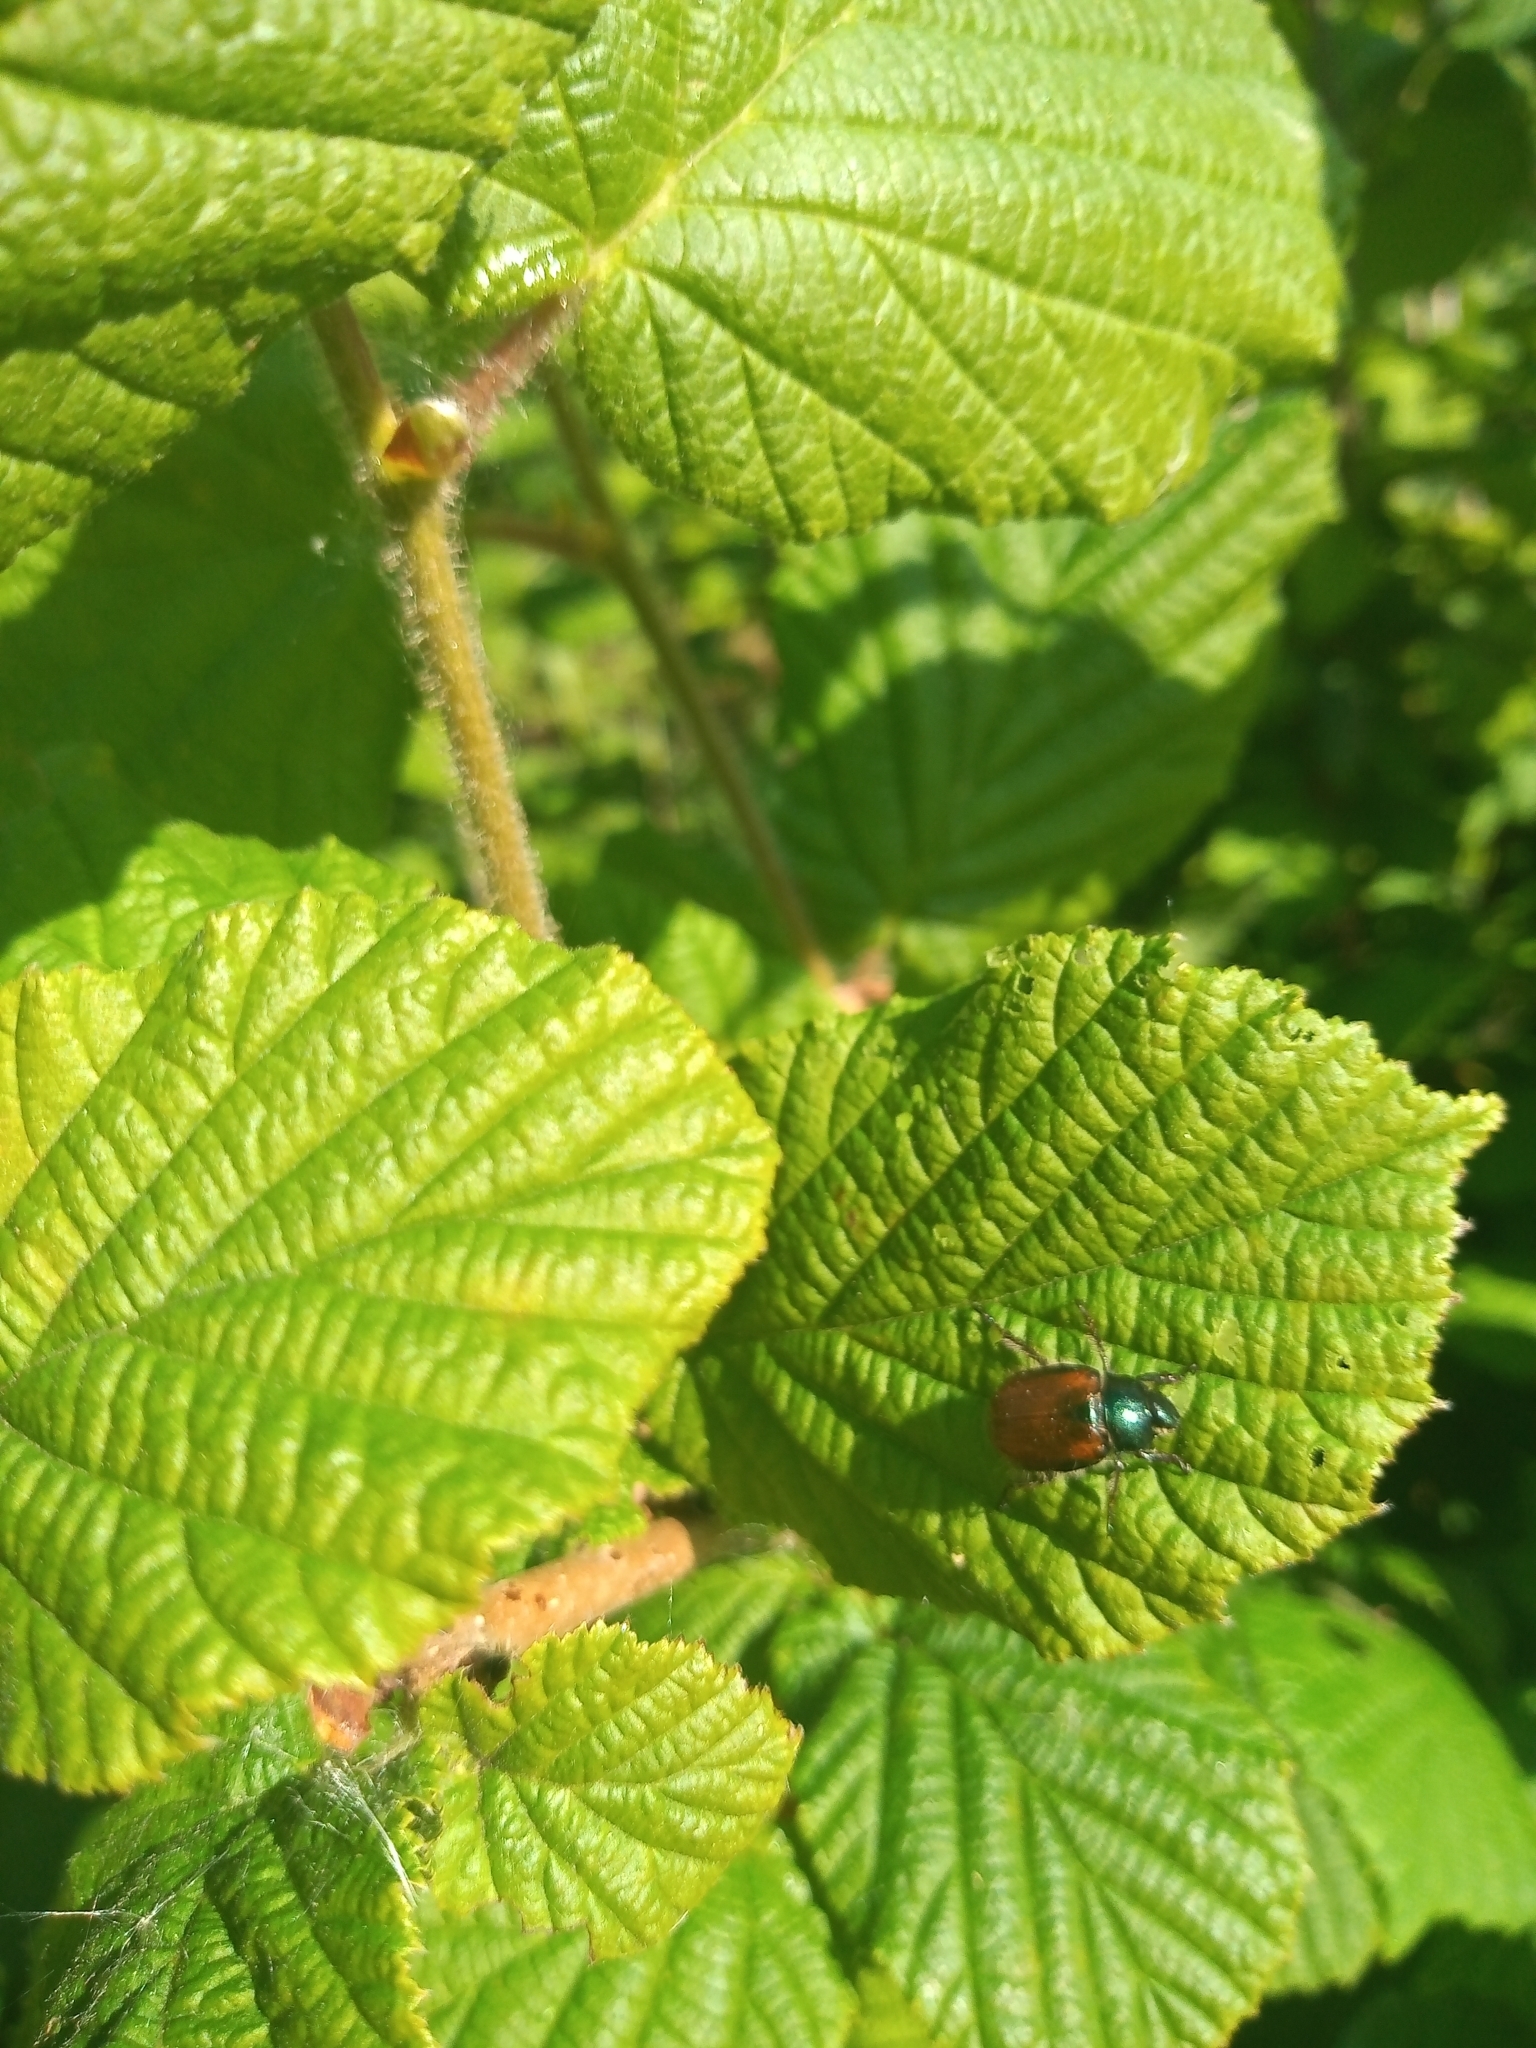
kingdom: Animalia
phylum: Arthropoda
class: Insecta
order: Coleoptera
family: Scarabaeidae
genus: Phyllopertha
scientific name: Phyllopertha horticola
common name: Garden chafer
